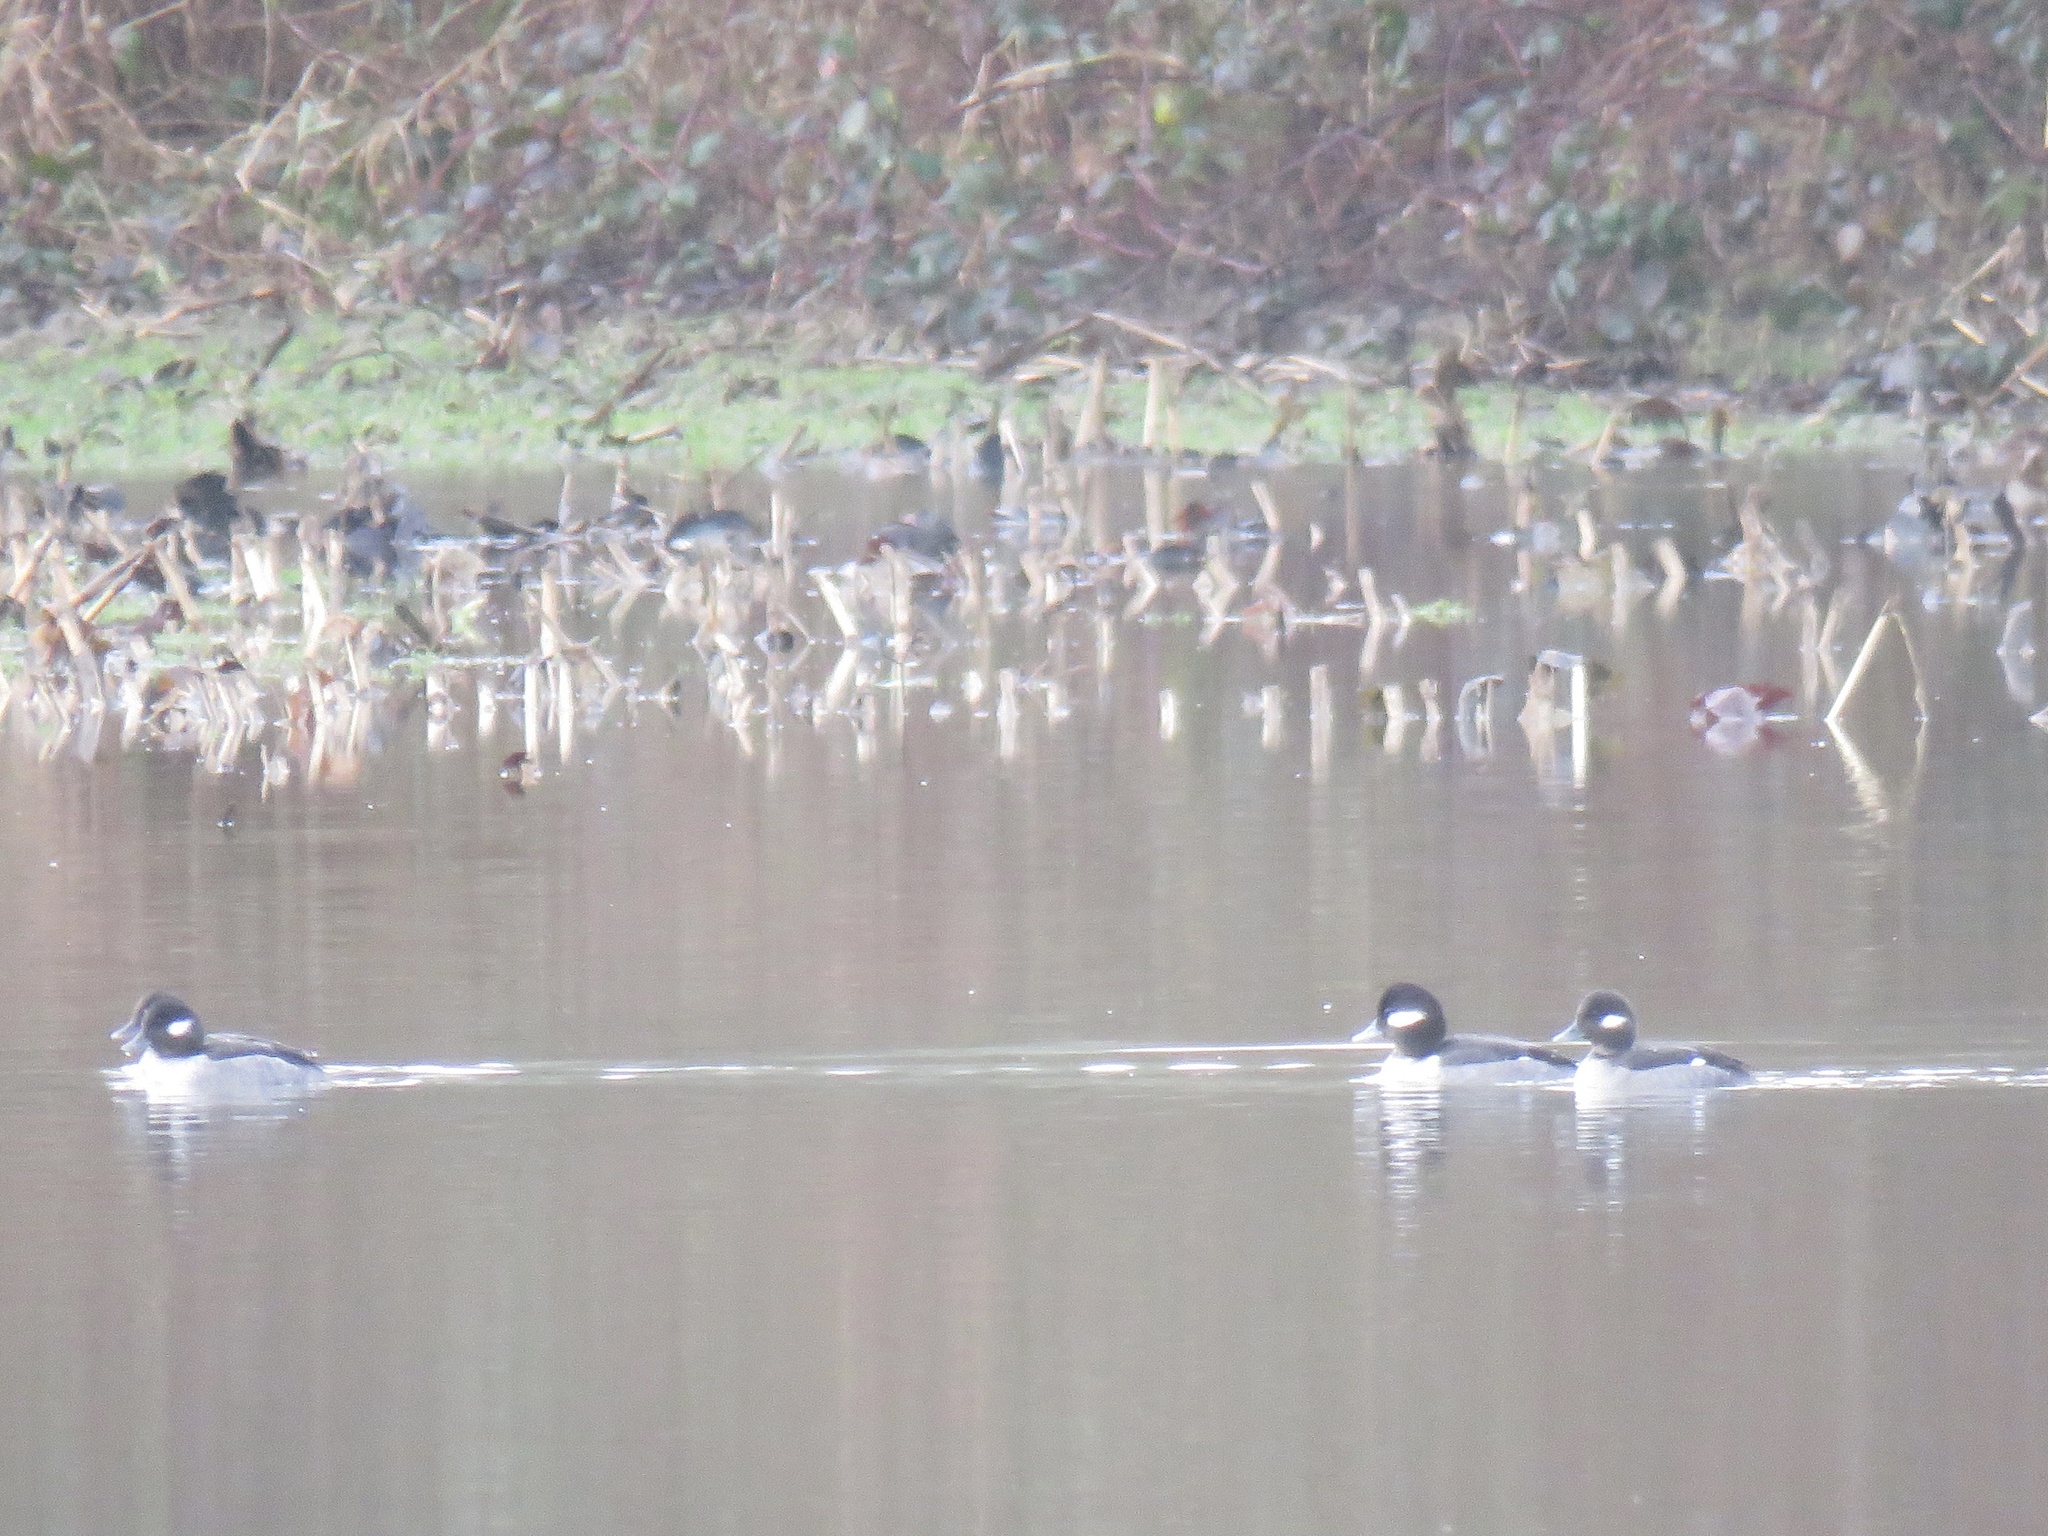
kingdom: Animalia
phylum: Chordata
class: Aves
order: Anseriformes
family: Anatidae
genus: Bucephala
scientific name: Bucephala albeola
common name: Bufflehead
